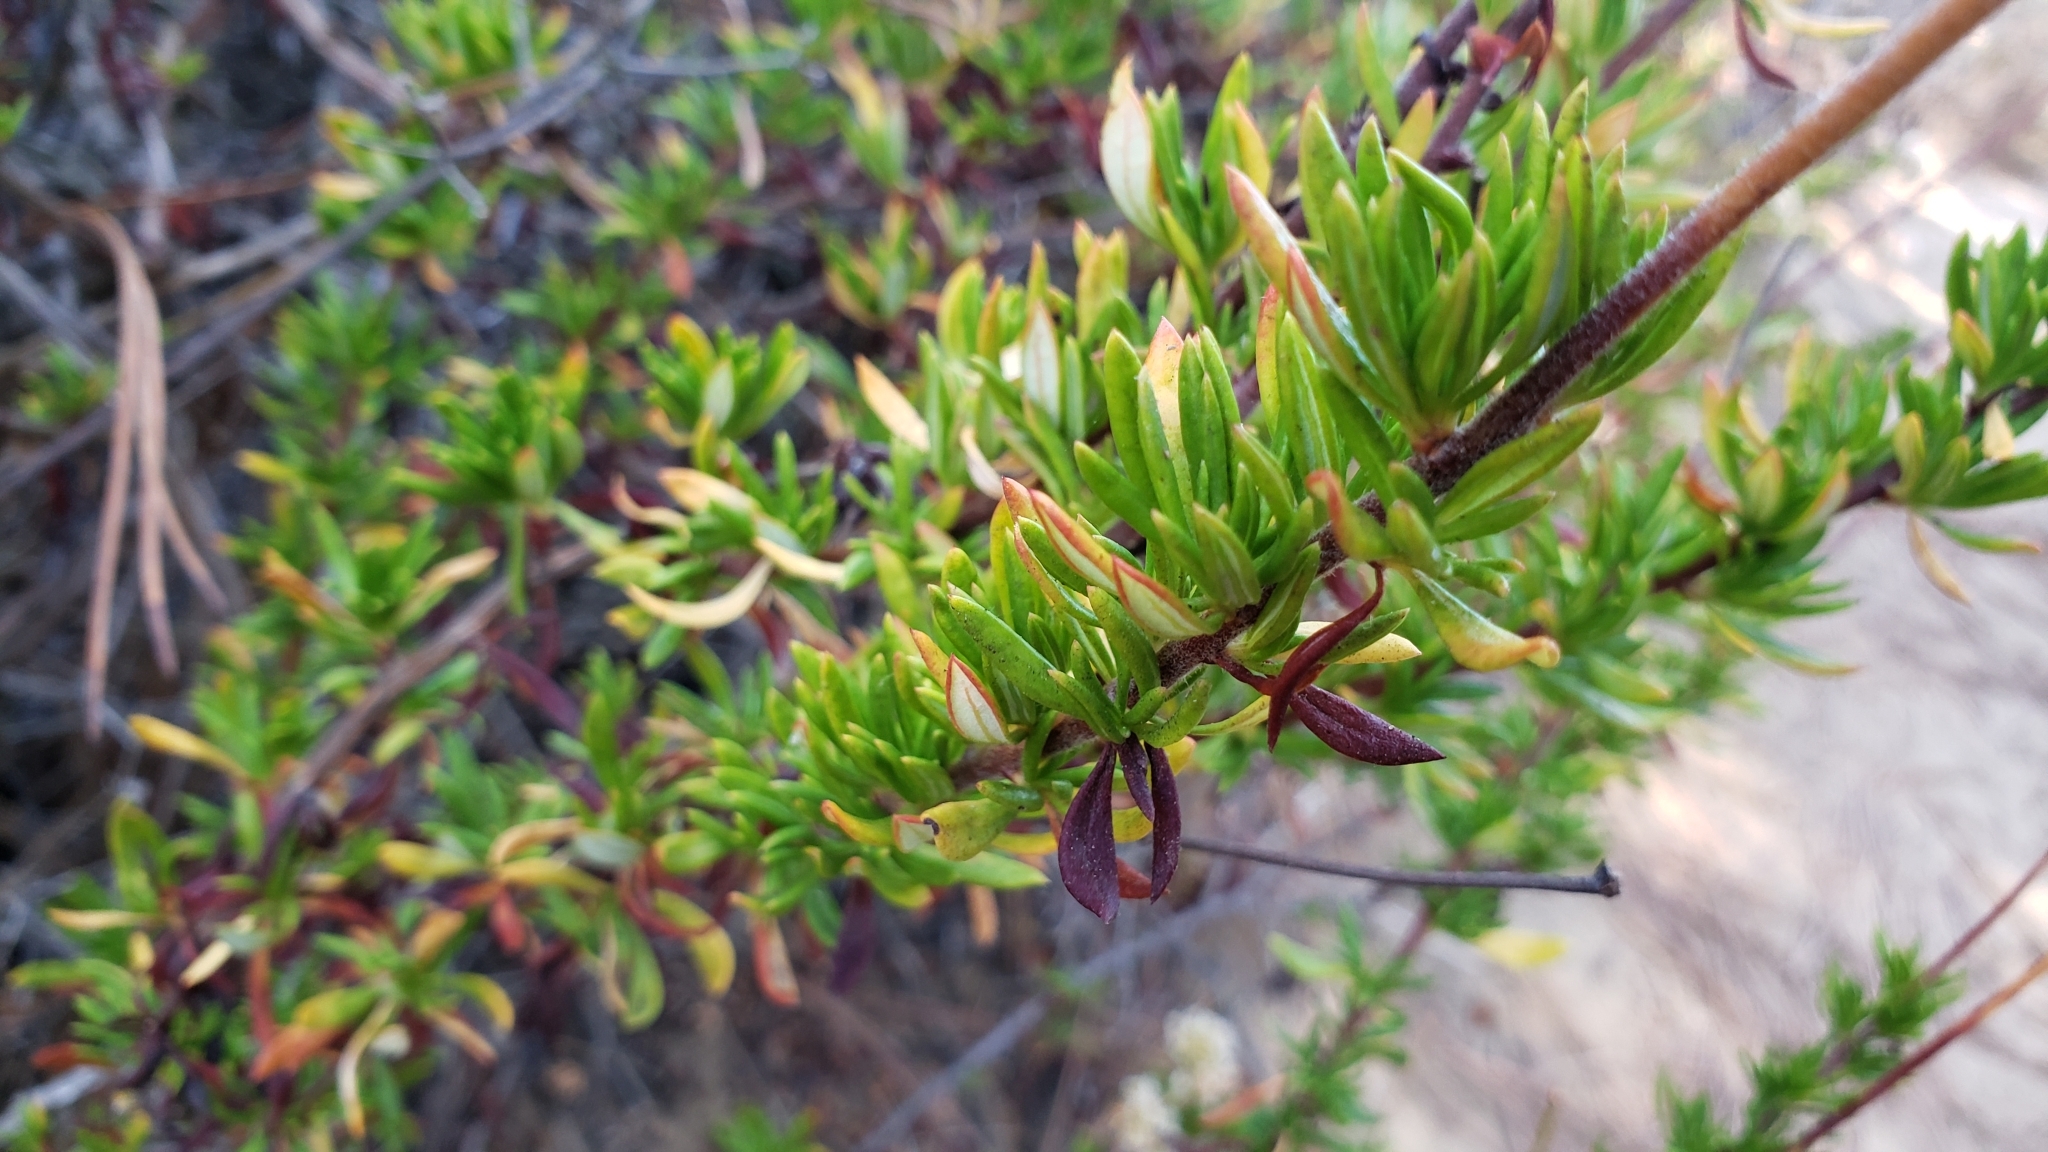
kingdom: Plantae
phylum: Tracheophyta
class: Magnoliopsida
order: Caryophyllales
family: Polygonaceae
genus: Eriogonum
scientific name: Eriogonum fasciculatum
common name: California wild buckwheat
